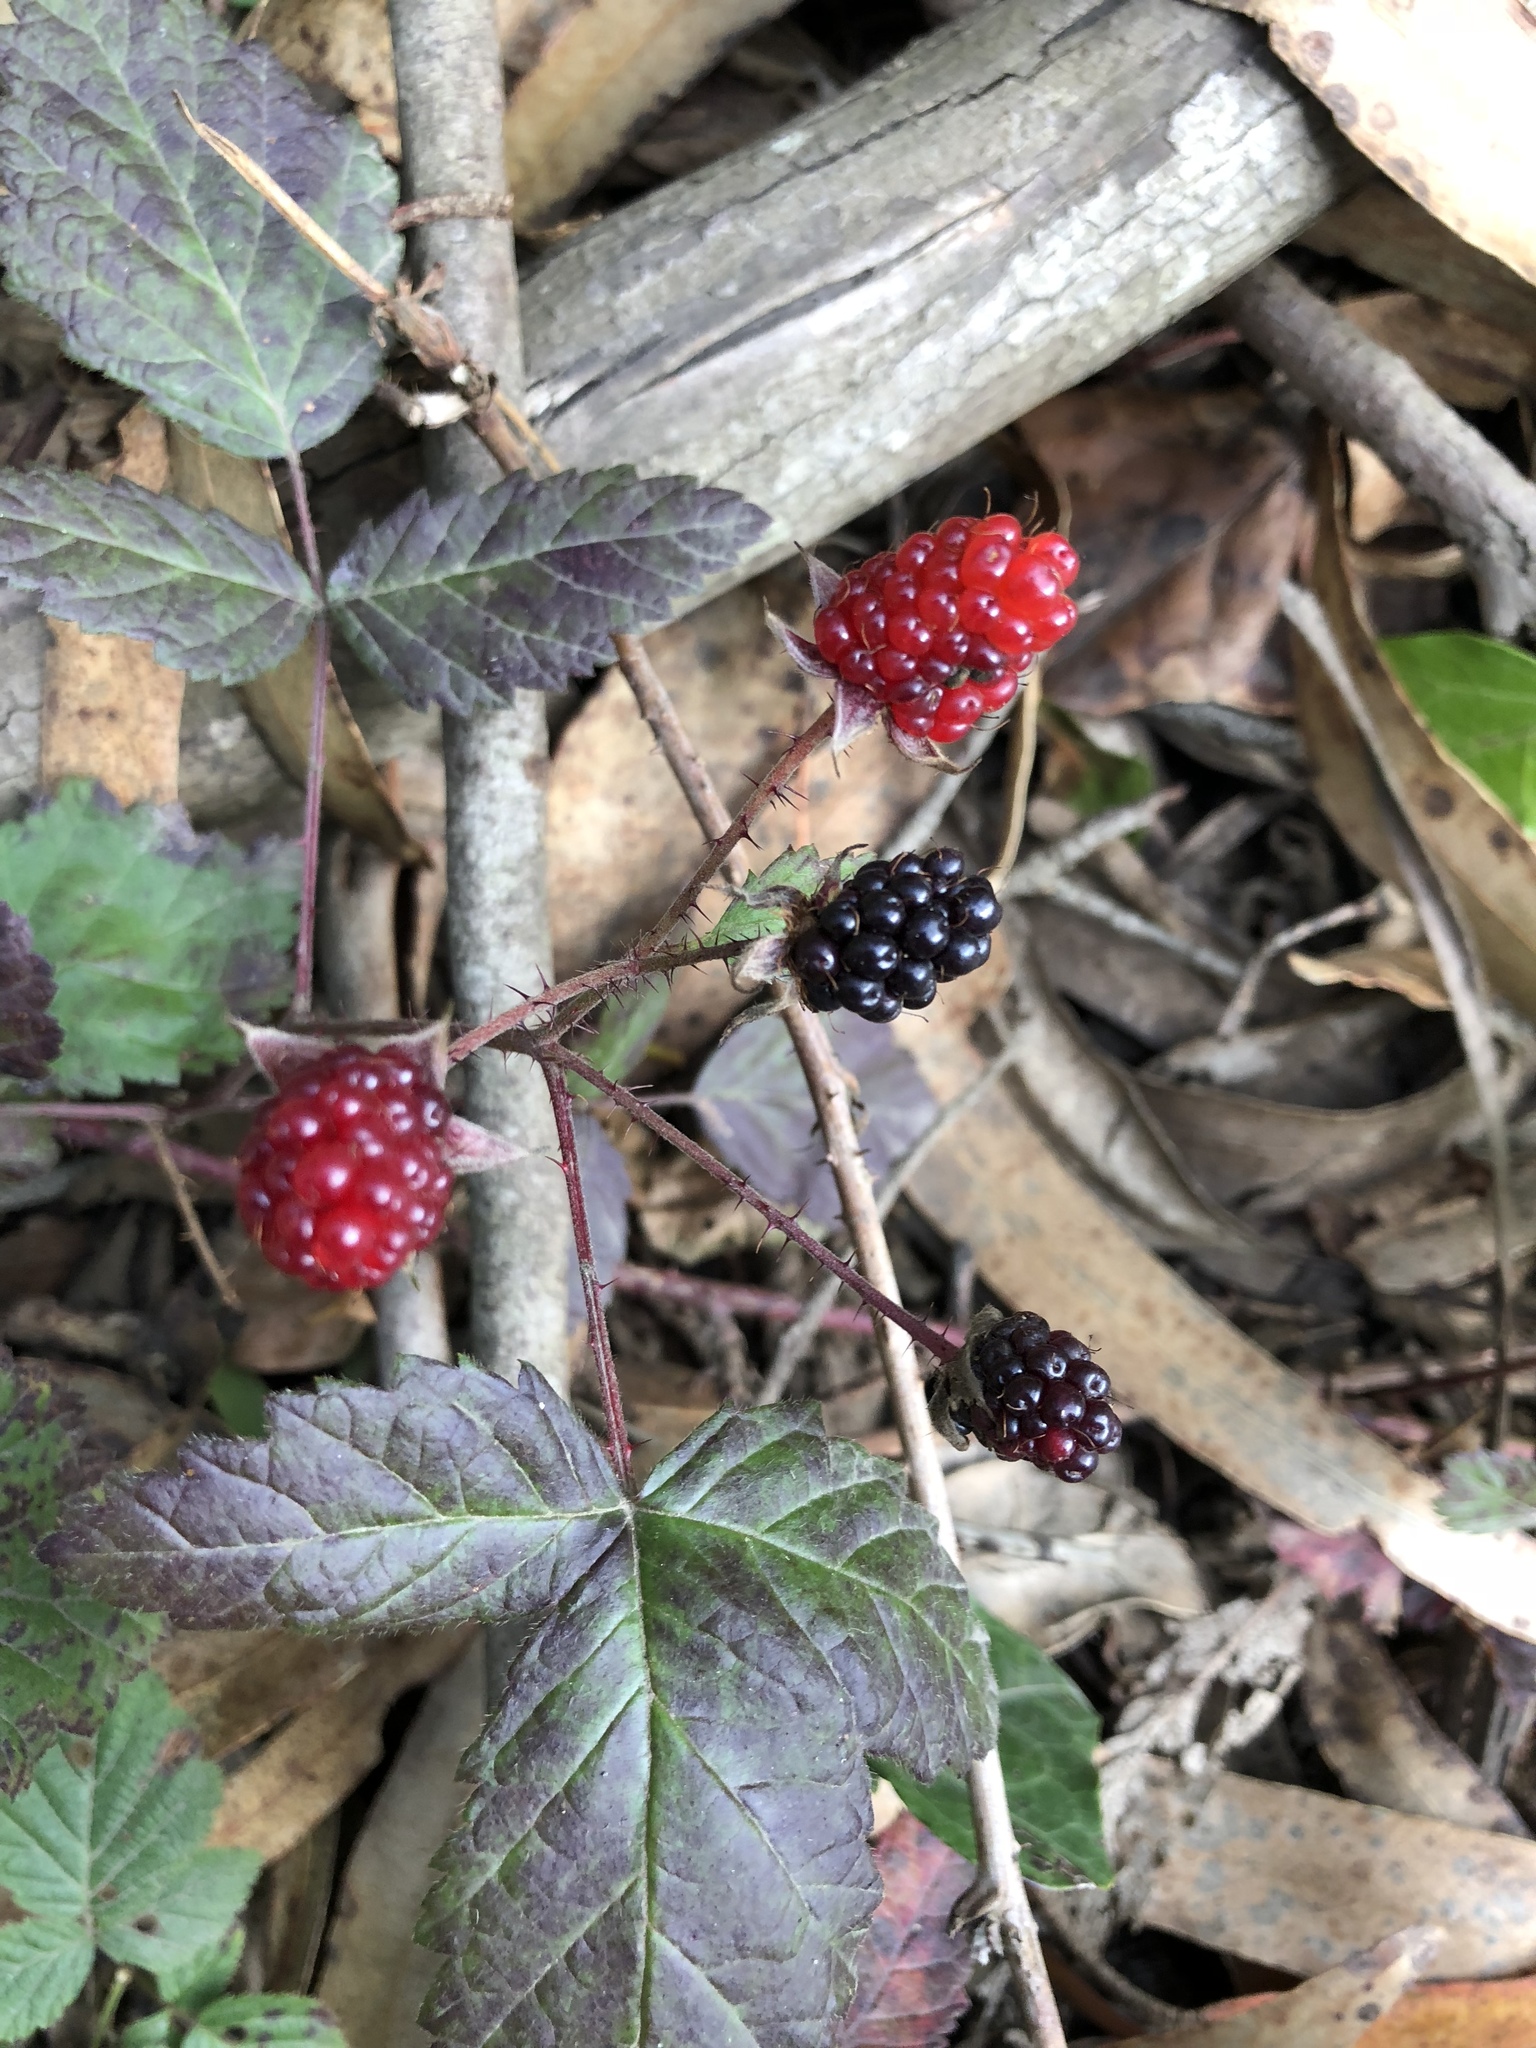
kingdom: Plantae
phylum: Tracheophyta
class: Magnoliopsida
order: Rosales
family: Rosaceae
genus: Rubus
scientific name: Rubus ursinus
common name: Pacific blackberry
